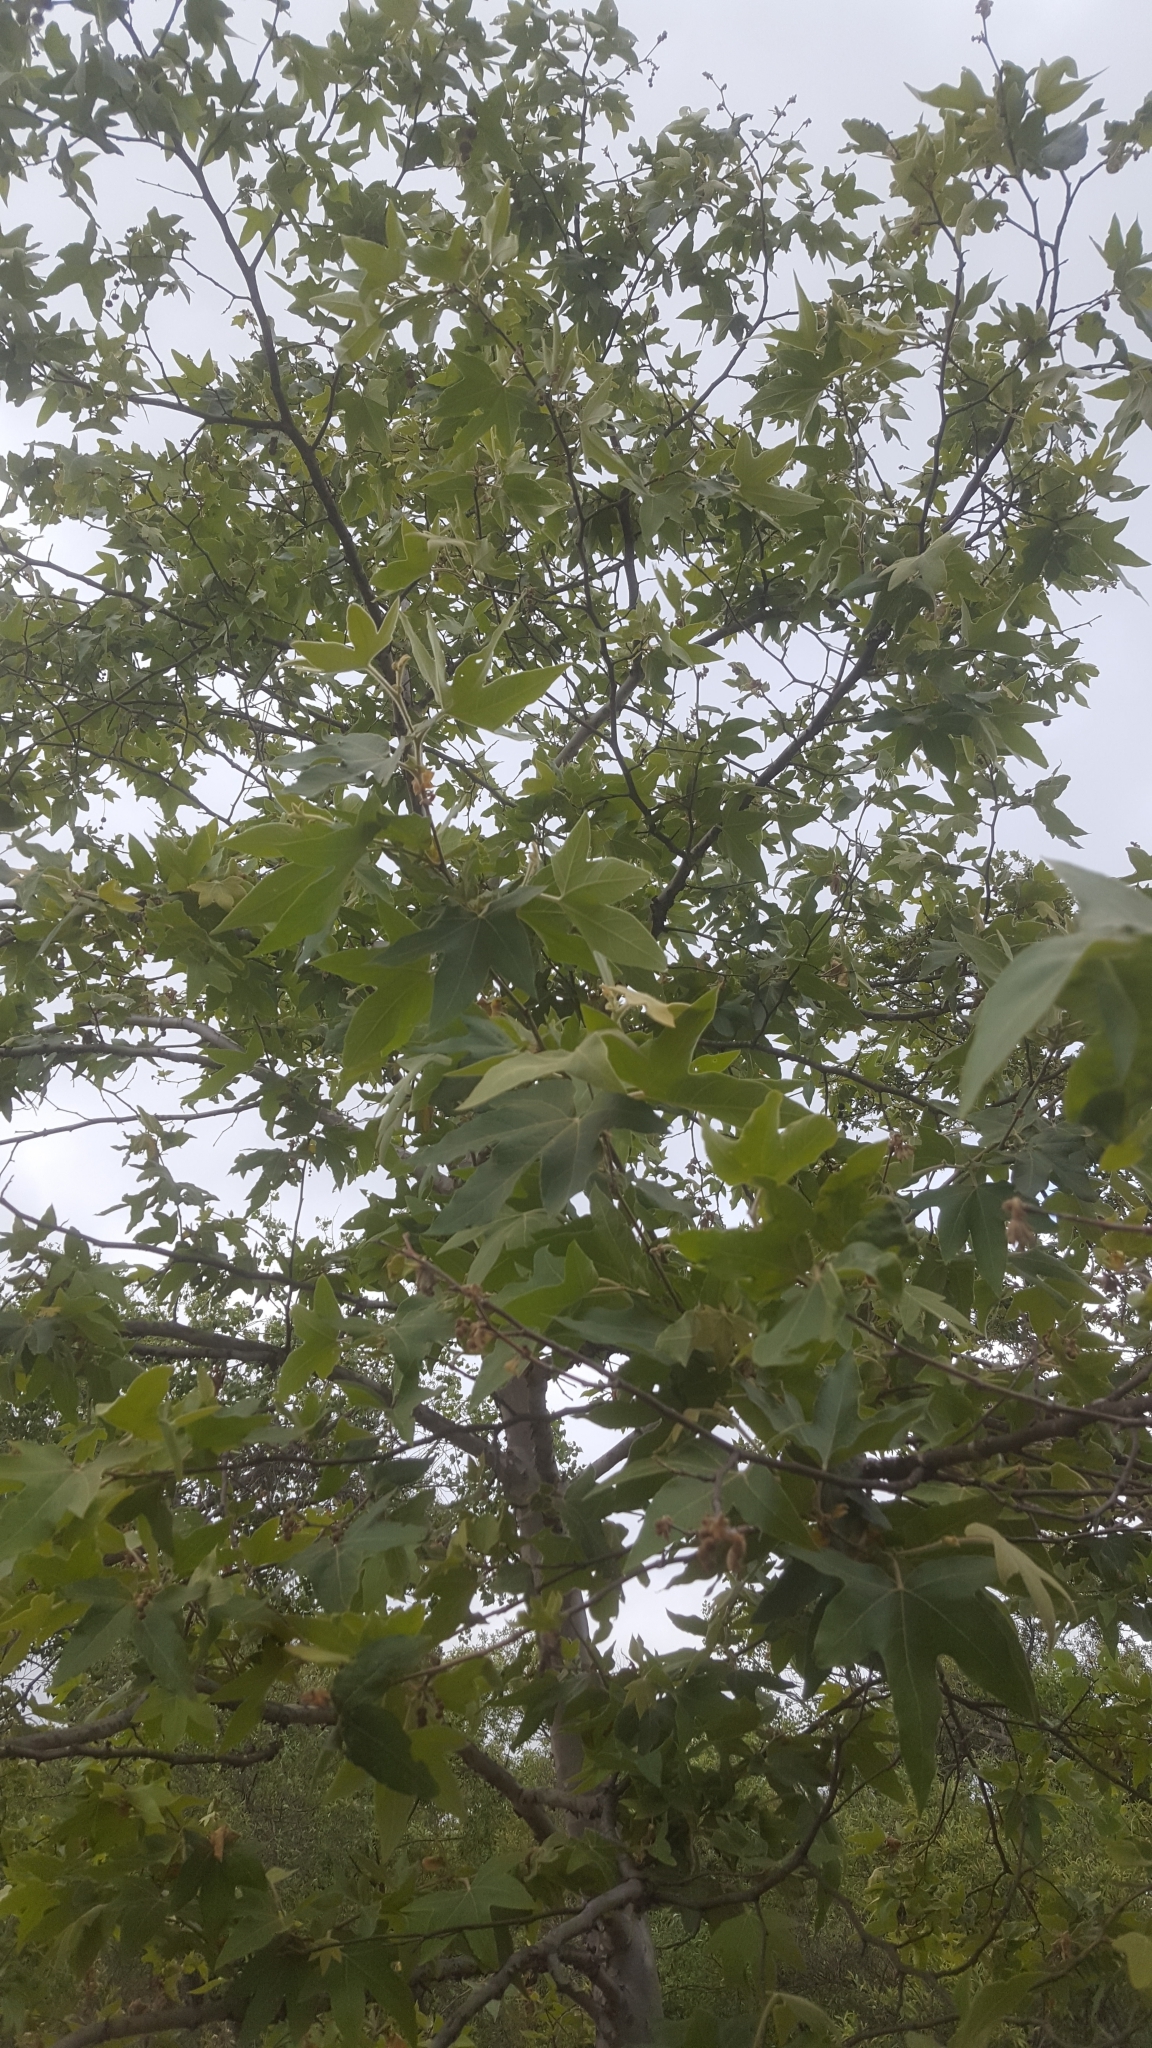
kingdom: Plantae
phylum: Tracheophyta
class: Magnoliopsida
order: Proteales
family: Platanaceae
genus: Platanus
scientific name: Platanus racemosa
